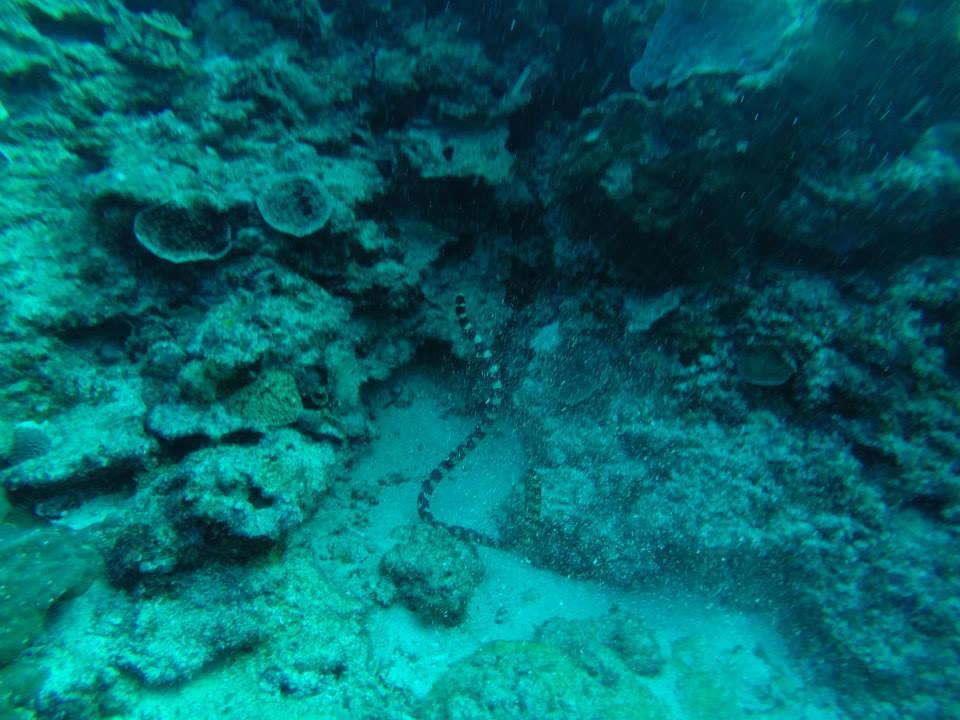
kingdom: Animalia
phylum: Chordata
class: Squamata
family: Elapidae
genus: Emydocephalus
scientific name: Emydocephalus ijimae
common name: Turtlehead sea snake
